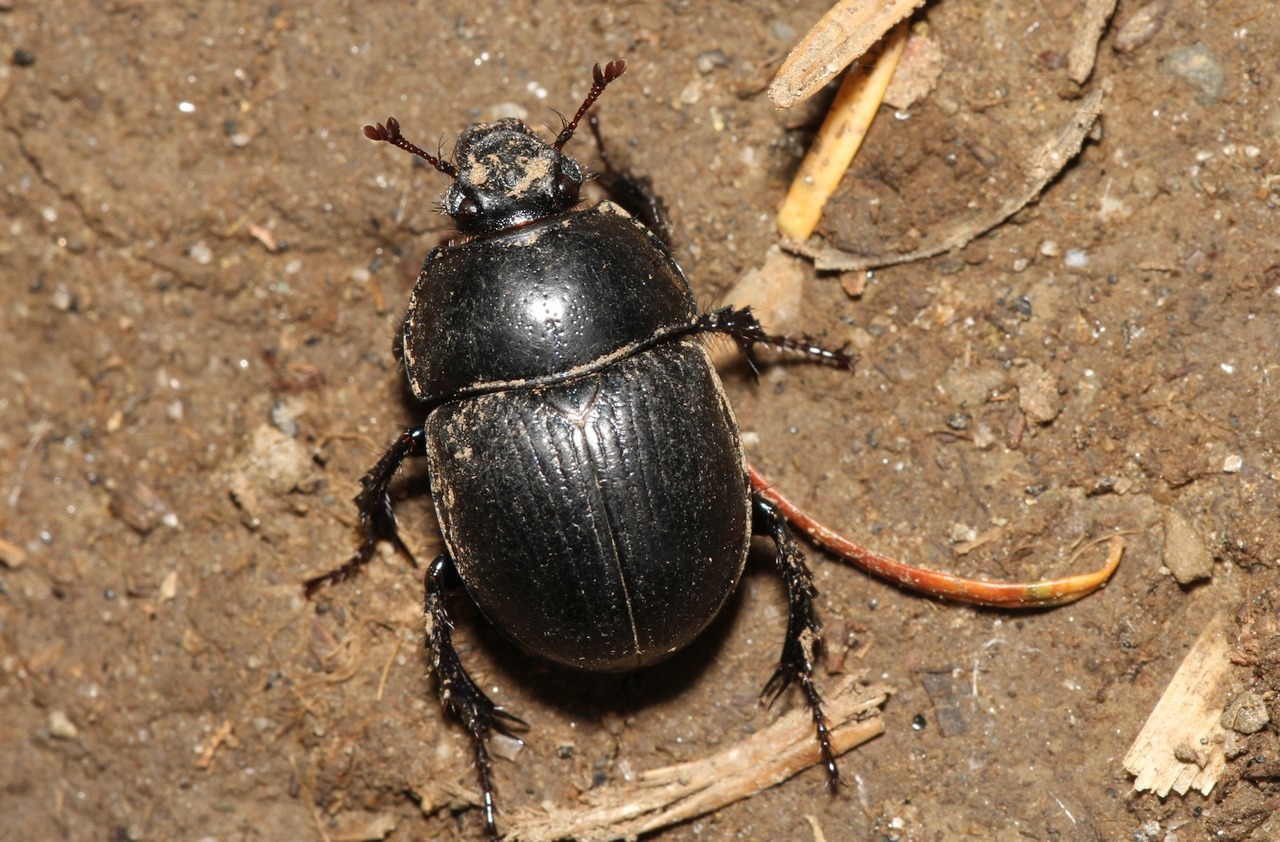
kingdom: Animalia
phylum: Arthropoda
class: Insecta
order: Coleoptera
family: Geotrupidae
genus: Anoplotrupes
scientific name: Anoplotrupes stercorosus
